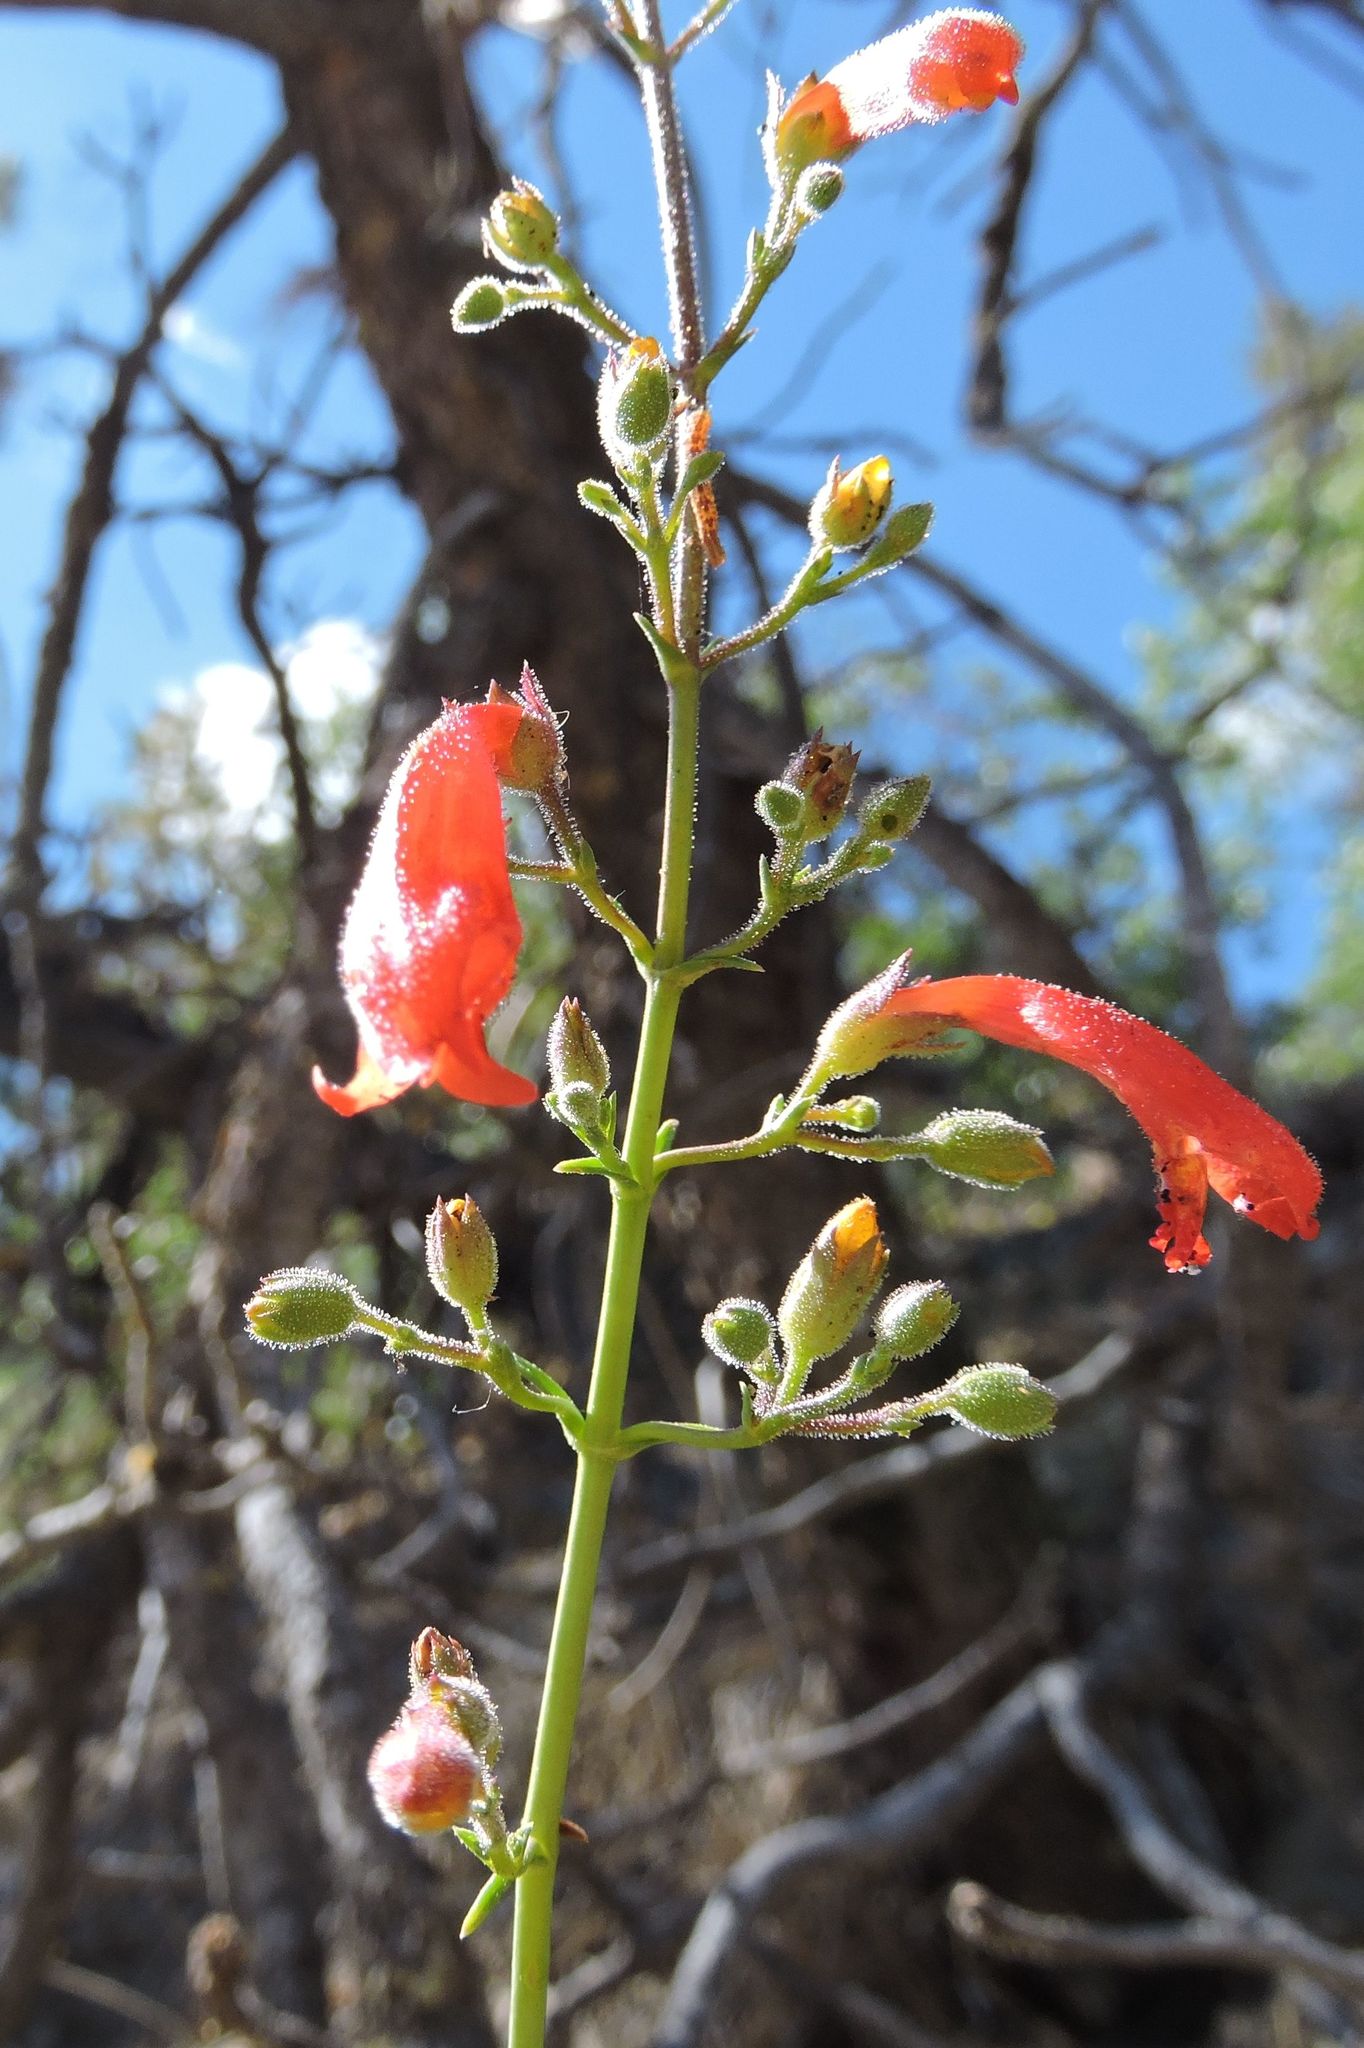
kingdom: Plantae
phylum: Tracheophyta
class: Magnoliopsida
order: Lamiales
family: Plantaginaceae
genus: Penstemon
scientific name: Penstemon rostriflorus
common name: Bridges's penstemon
